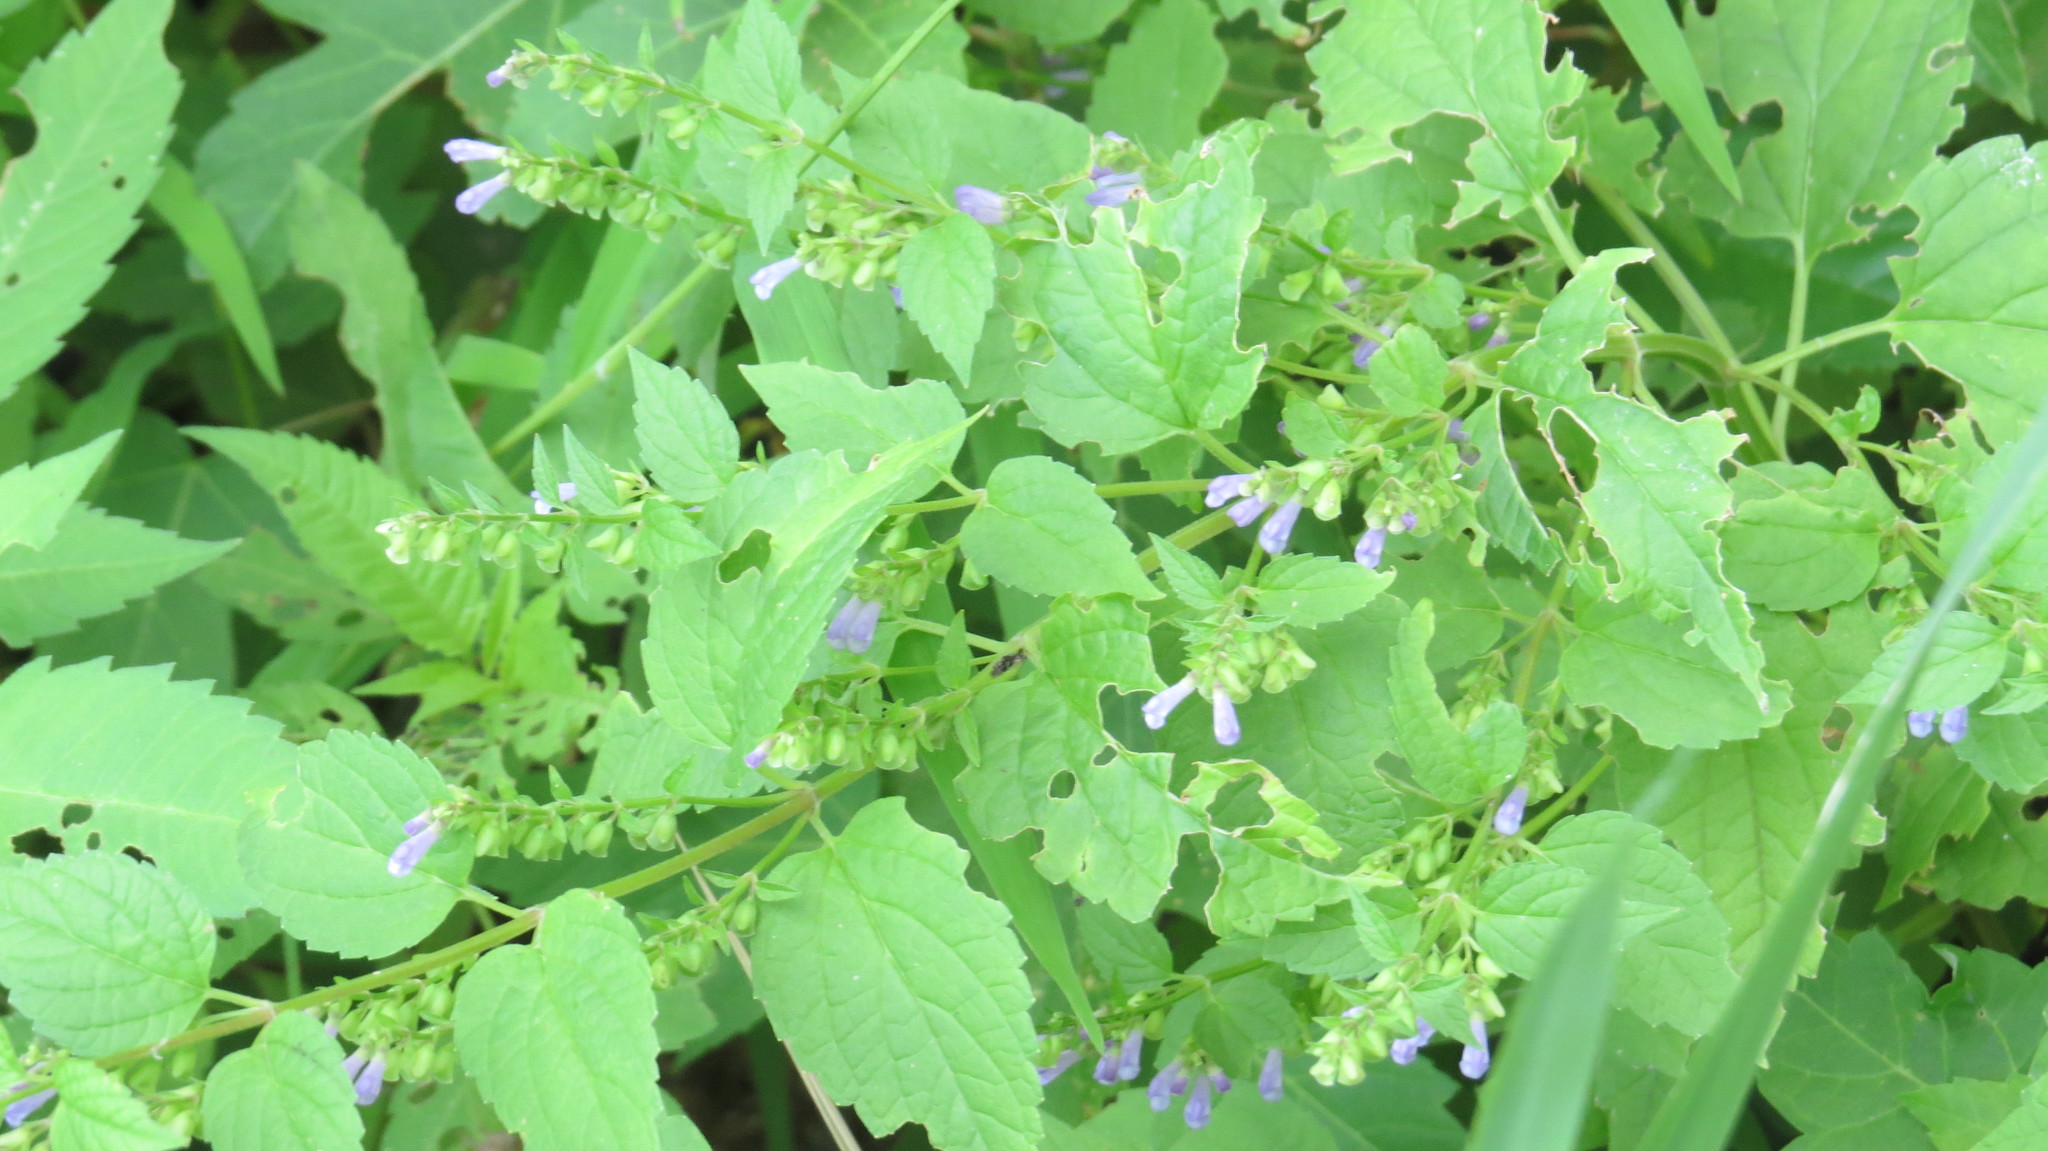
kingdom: Plantae
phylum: Tracheophyta
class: Magnoliopsida
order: Lamiales
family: Lamiaceae
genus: Scutellaria
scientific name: Scutellaria lateriflora
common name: Blue skullcap
